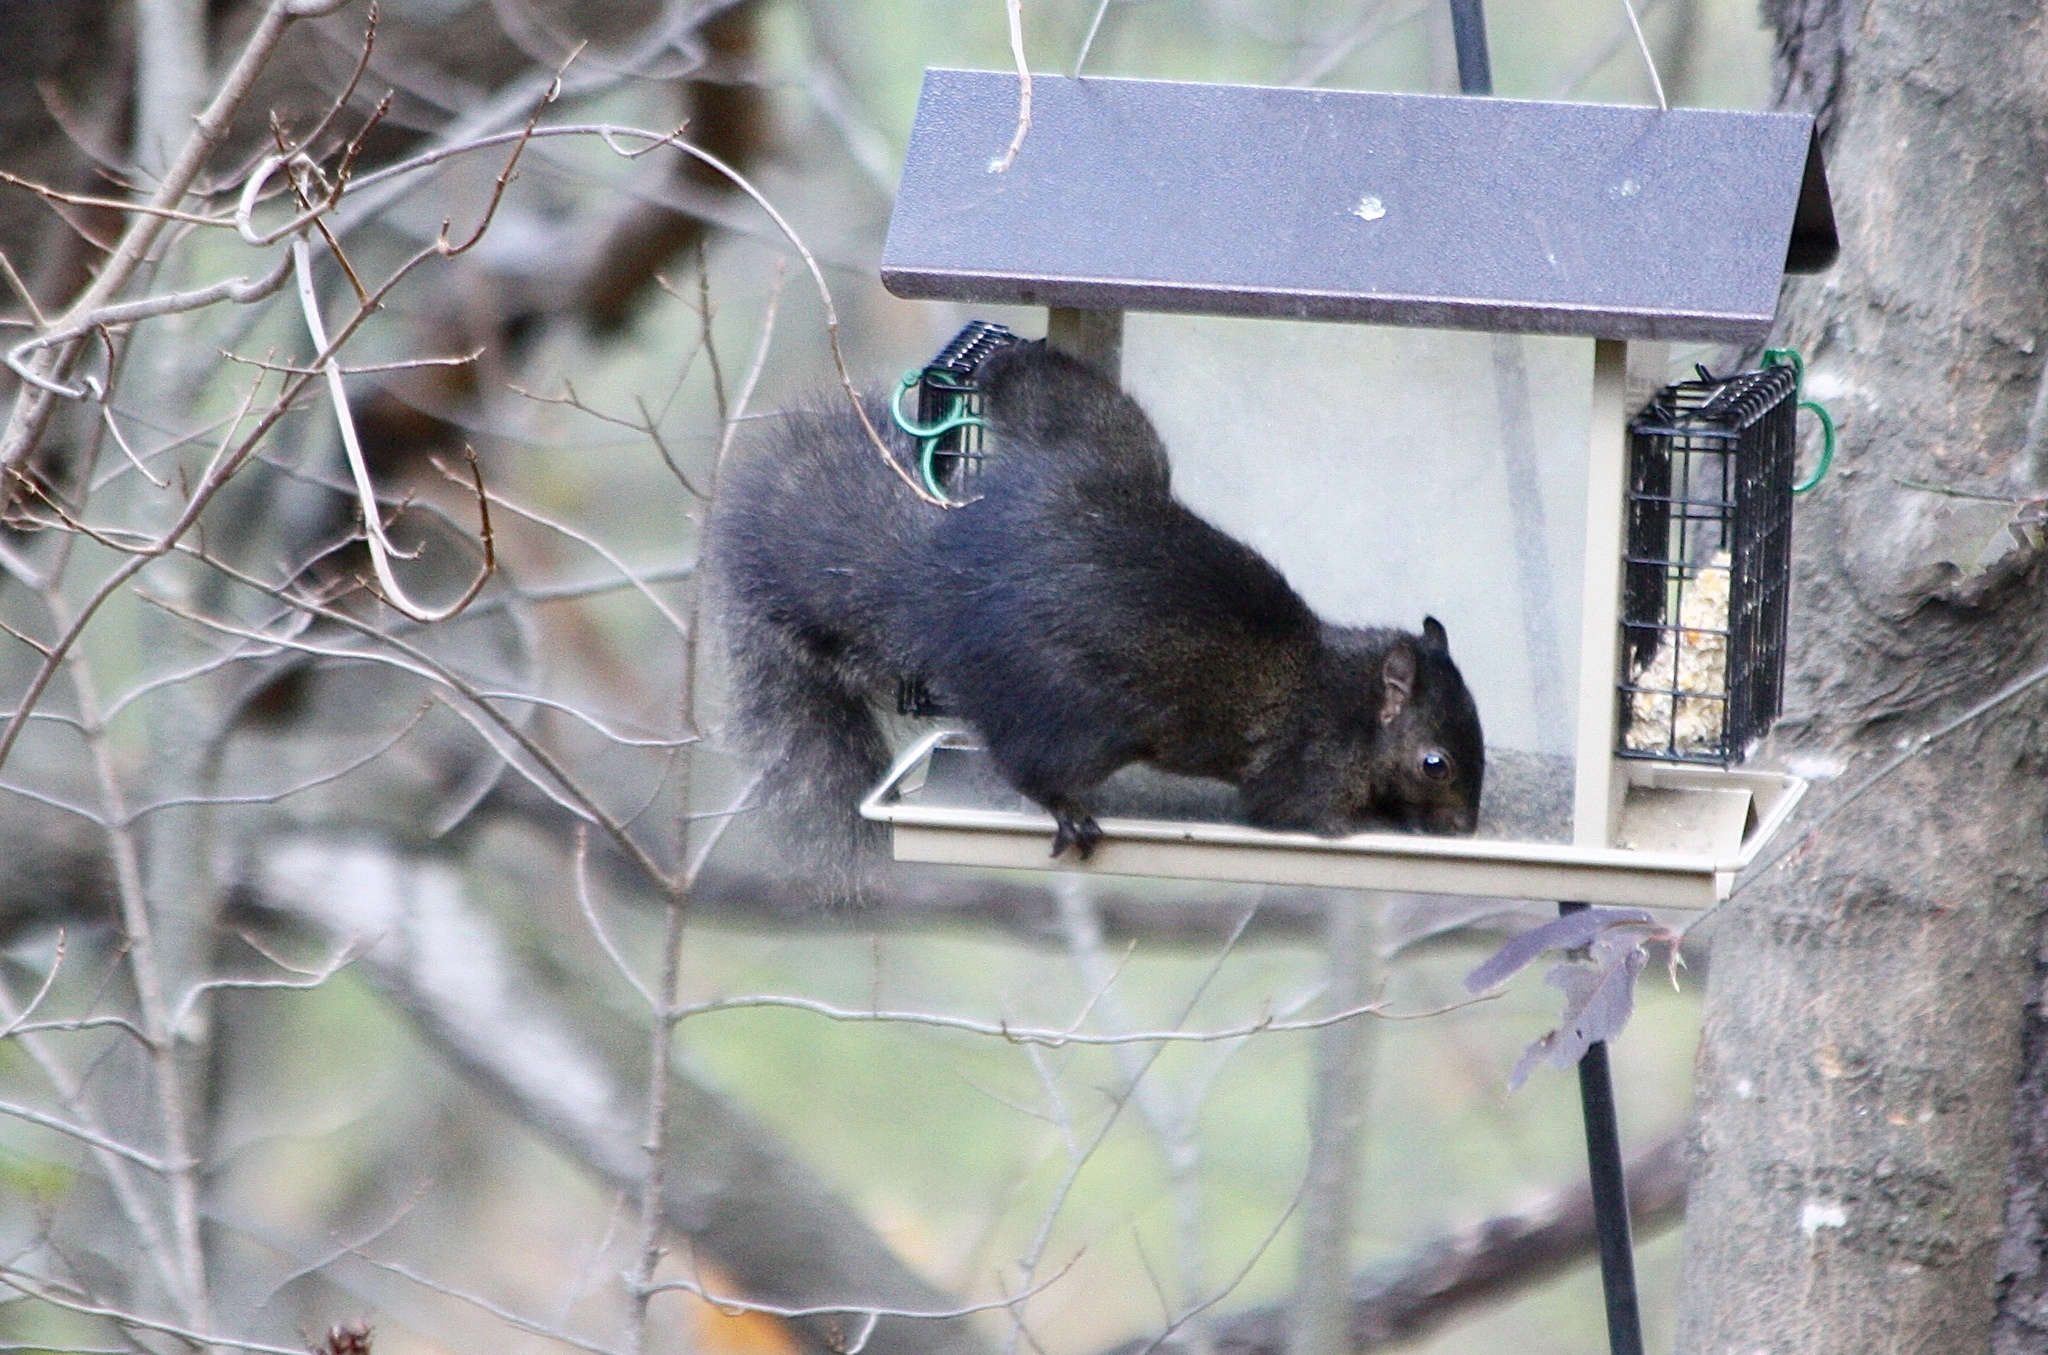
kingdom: Animalia
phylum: Chordata
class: Mammalia
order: Rodentia
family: Sciuridae
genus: Sciurus
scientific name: Sciurus carolinensis
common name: Eastern gray squirrel
